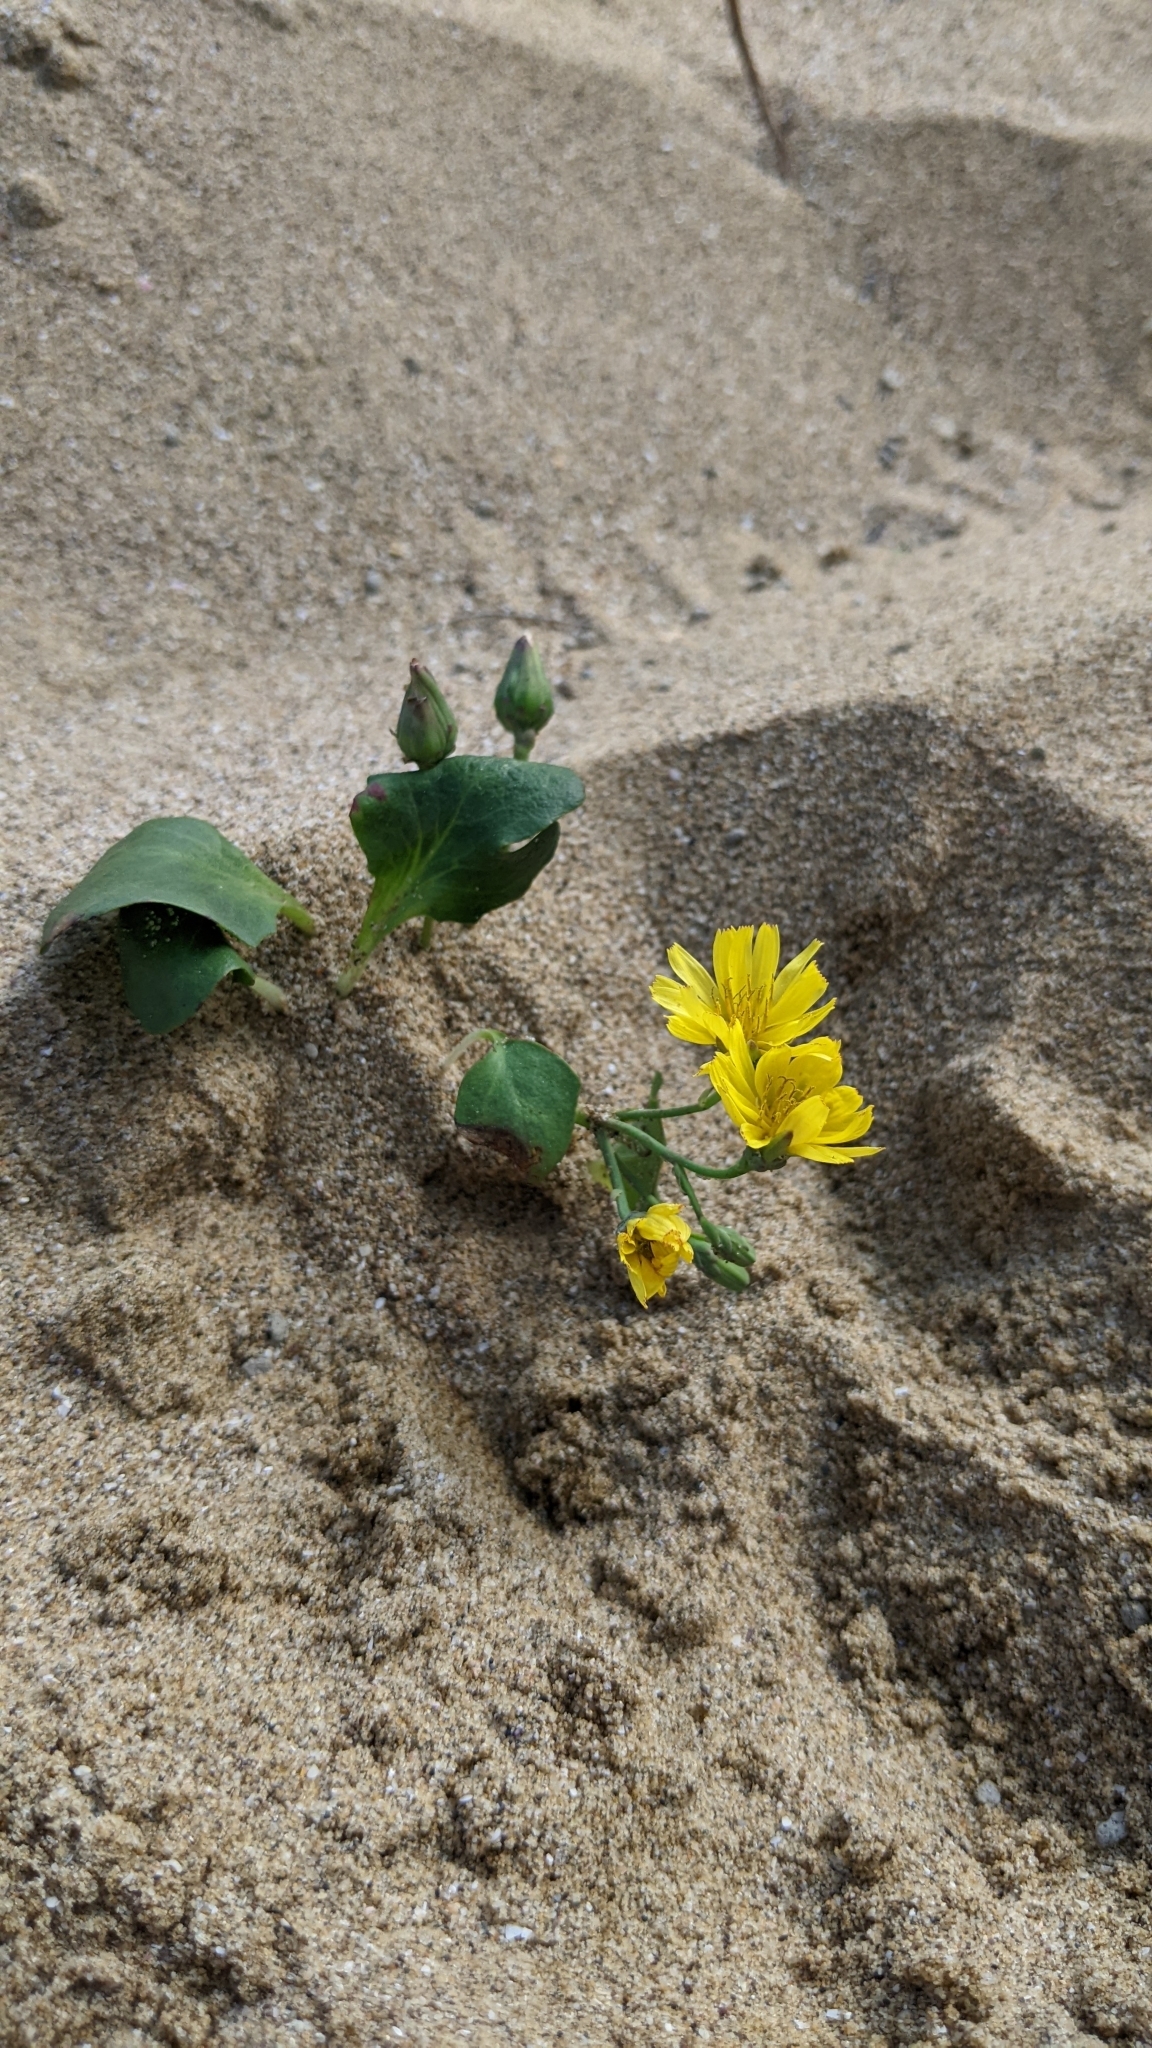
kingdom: Plantae
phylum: Tracheophyta
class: Magnoliopsida
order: Asterales
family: Asteraceae
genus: Ixeris
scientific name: Ixeris repens
